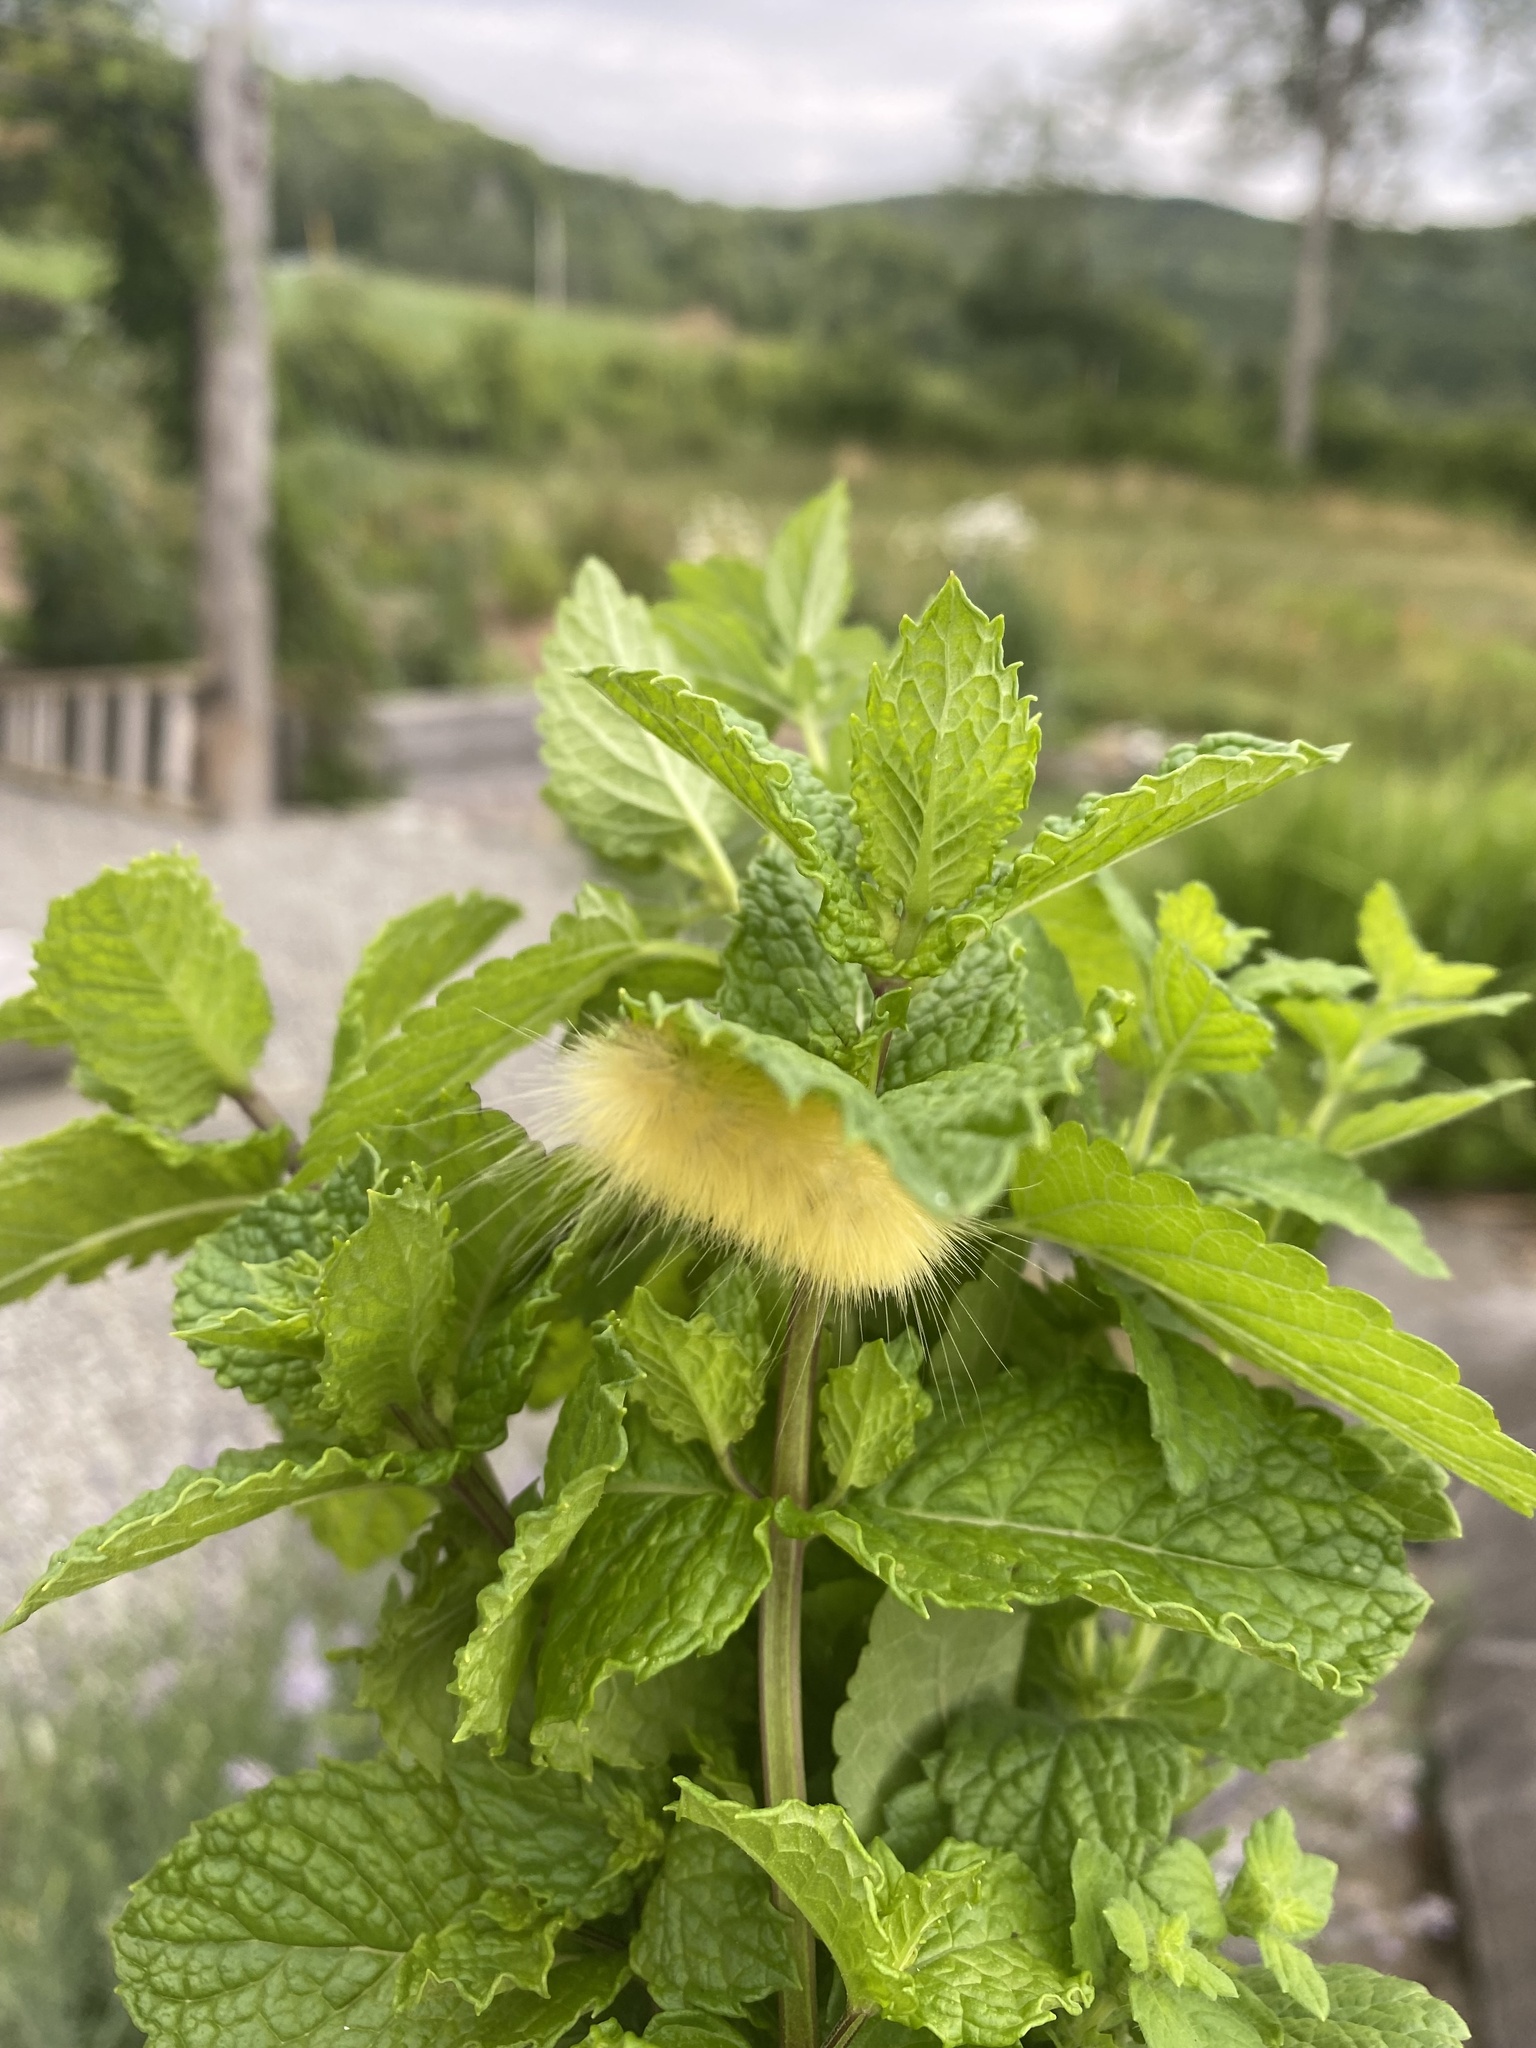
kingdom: Animalia
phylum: Arthropoda
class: Insecta
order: Lepidoptera
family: Erebidae
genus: Spilosoma
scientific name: Spilosoma virginica
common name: Virginia tiger moth
